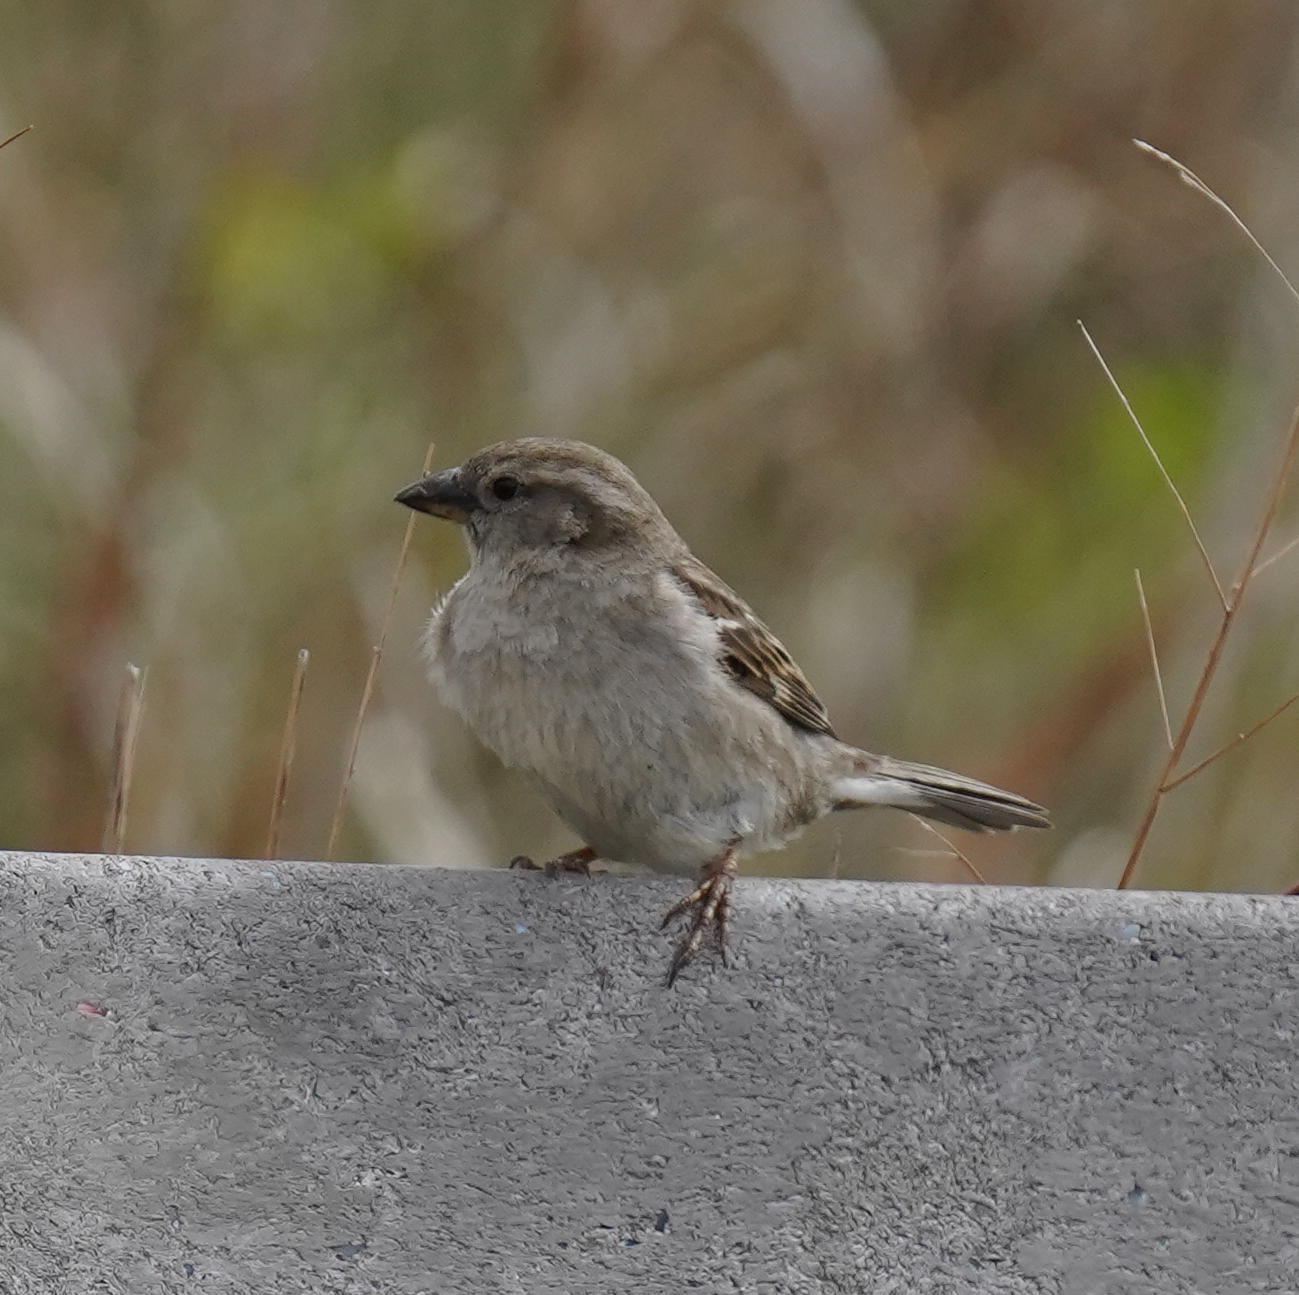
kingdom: Animalia
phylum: Chordata
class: Aves
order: Passeriformes
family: Passeridae
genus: Passer
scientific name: Passer domesticus
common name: House sparrow
